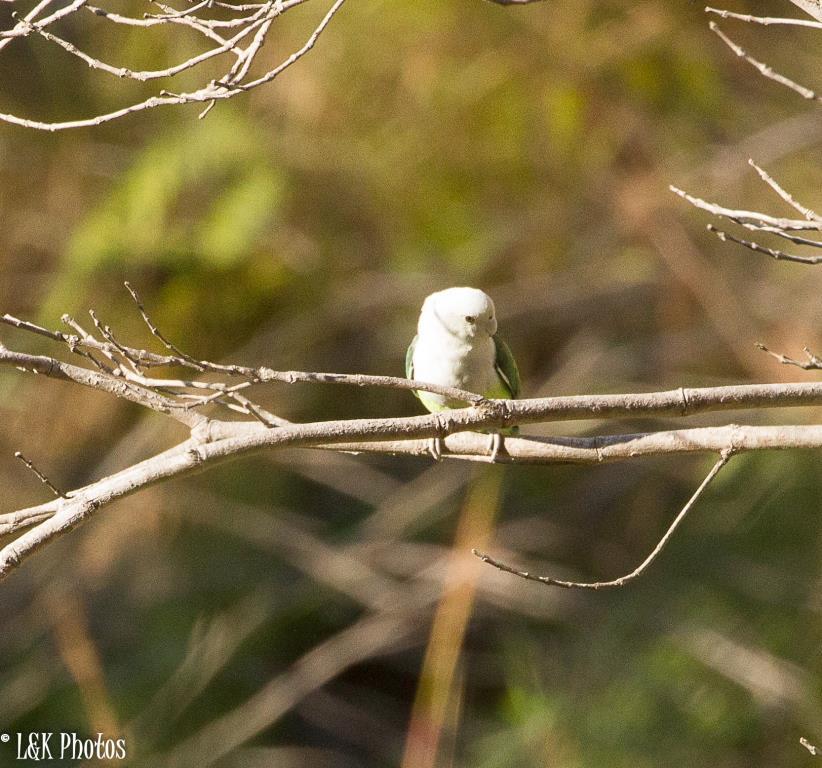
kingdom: Animalia
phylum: Chordata
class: Aves
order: Psittaciformes
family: Psittacidae
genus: Agapornis
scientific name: Agapornis canus
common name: Grey-headed lovebird
